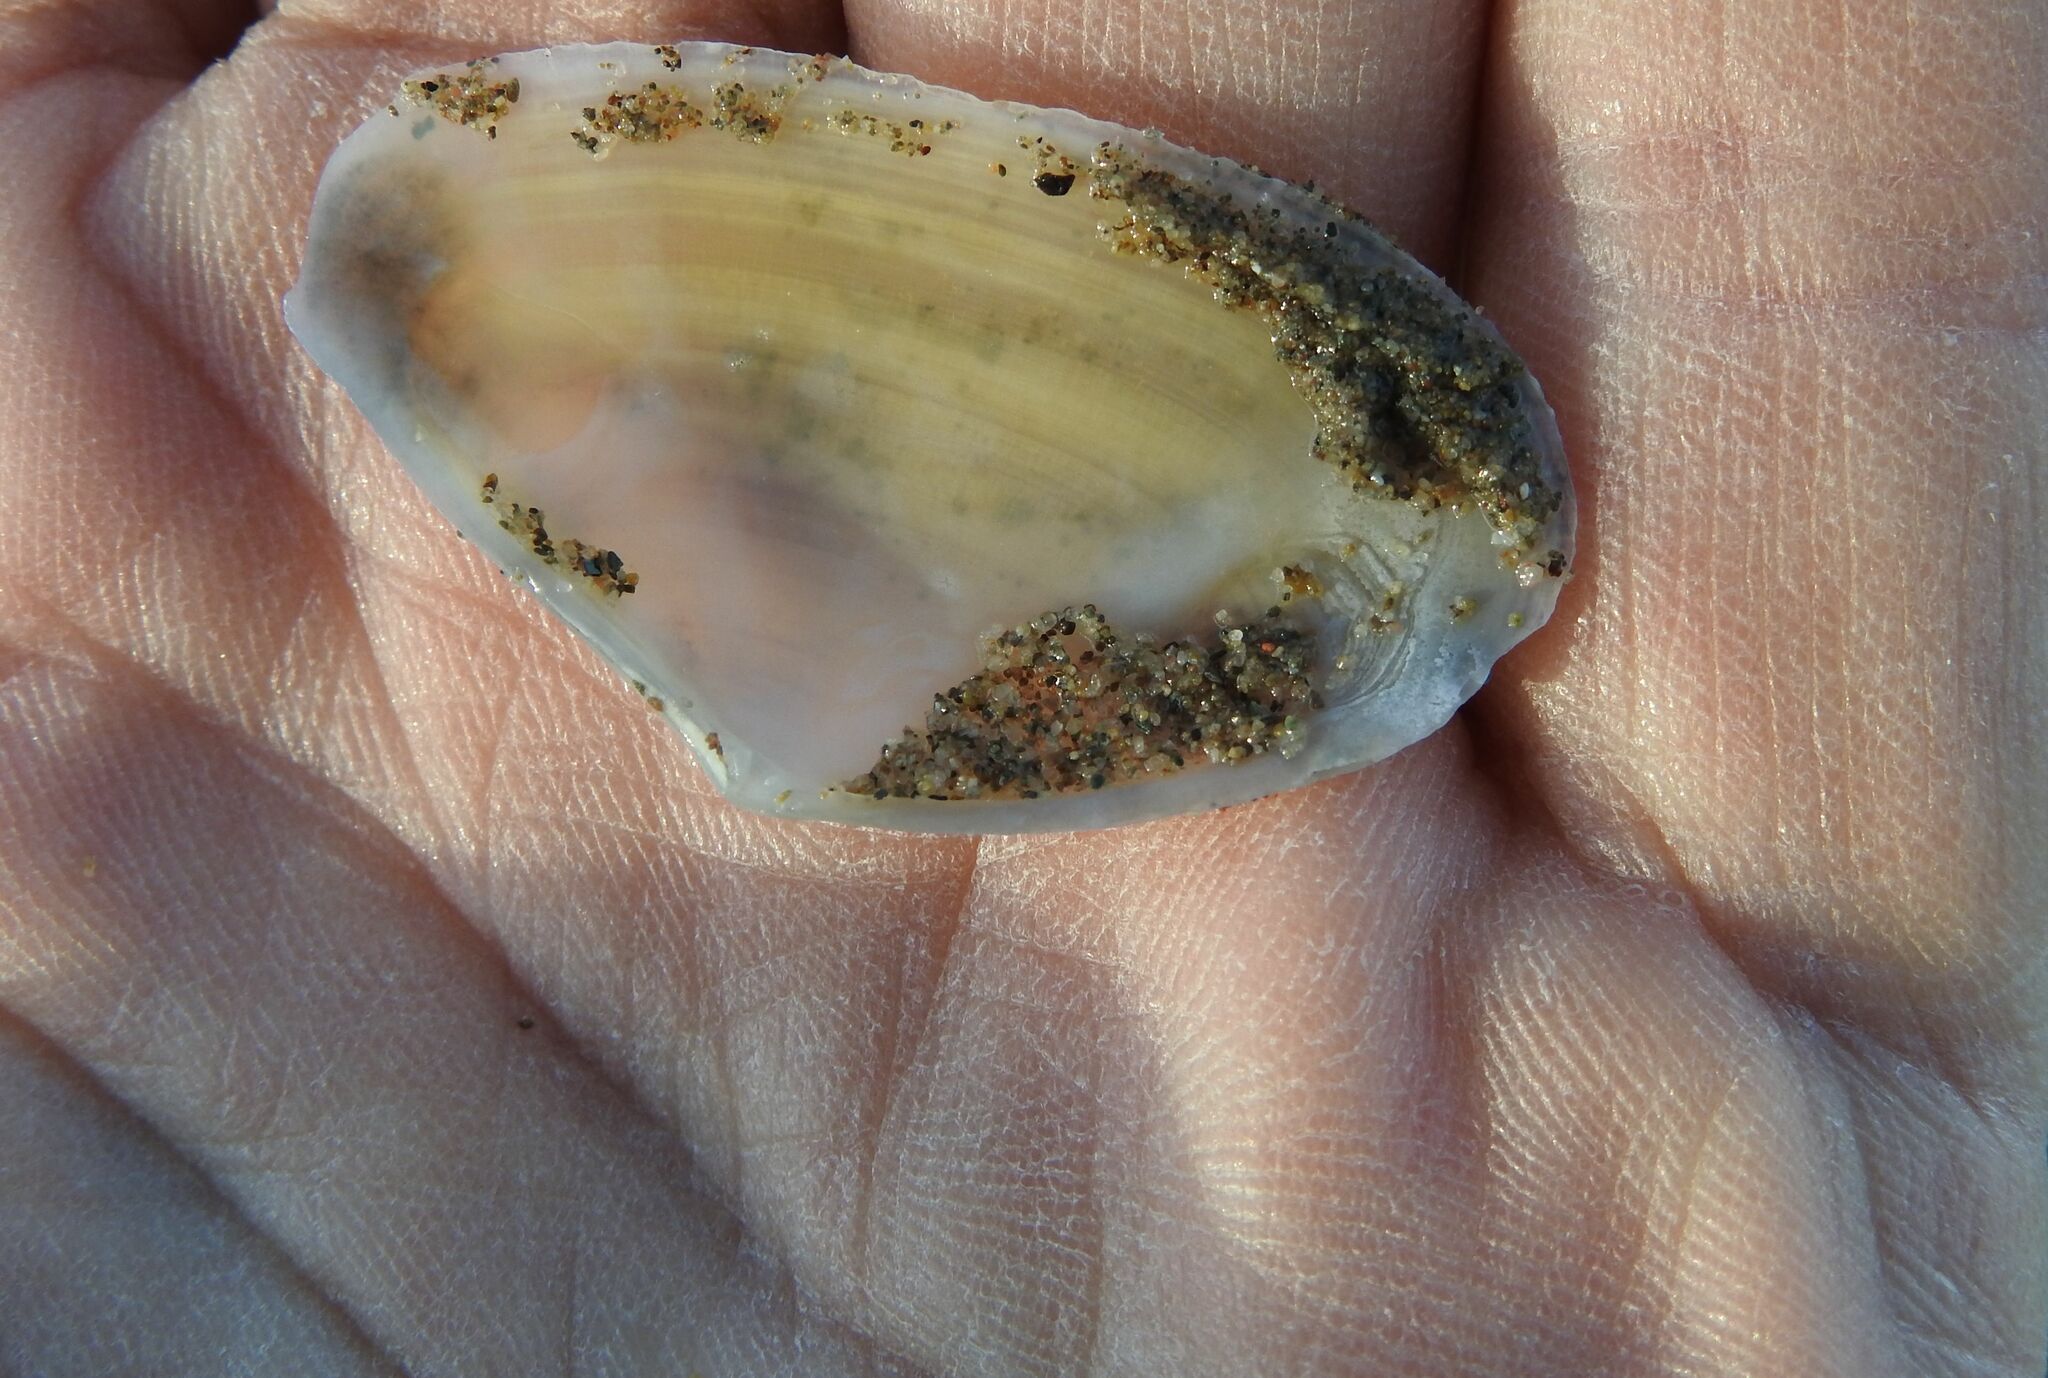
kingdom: Animalia
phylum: Mollusca
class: Bivalvia
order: Cardiida
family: Tellinidae
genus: Peronidia
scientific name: Peronidia albicans
